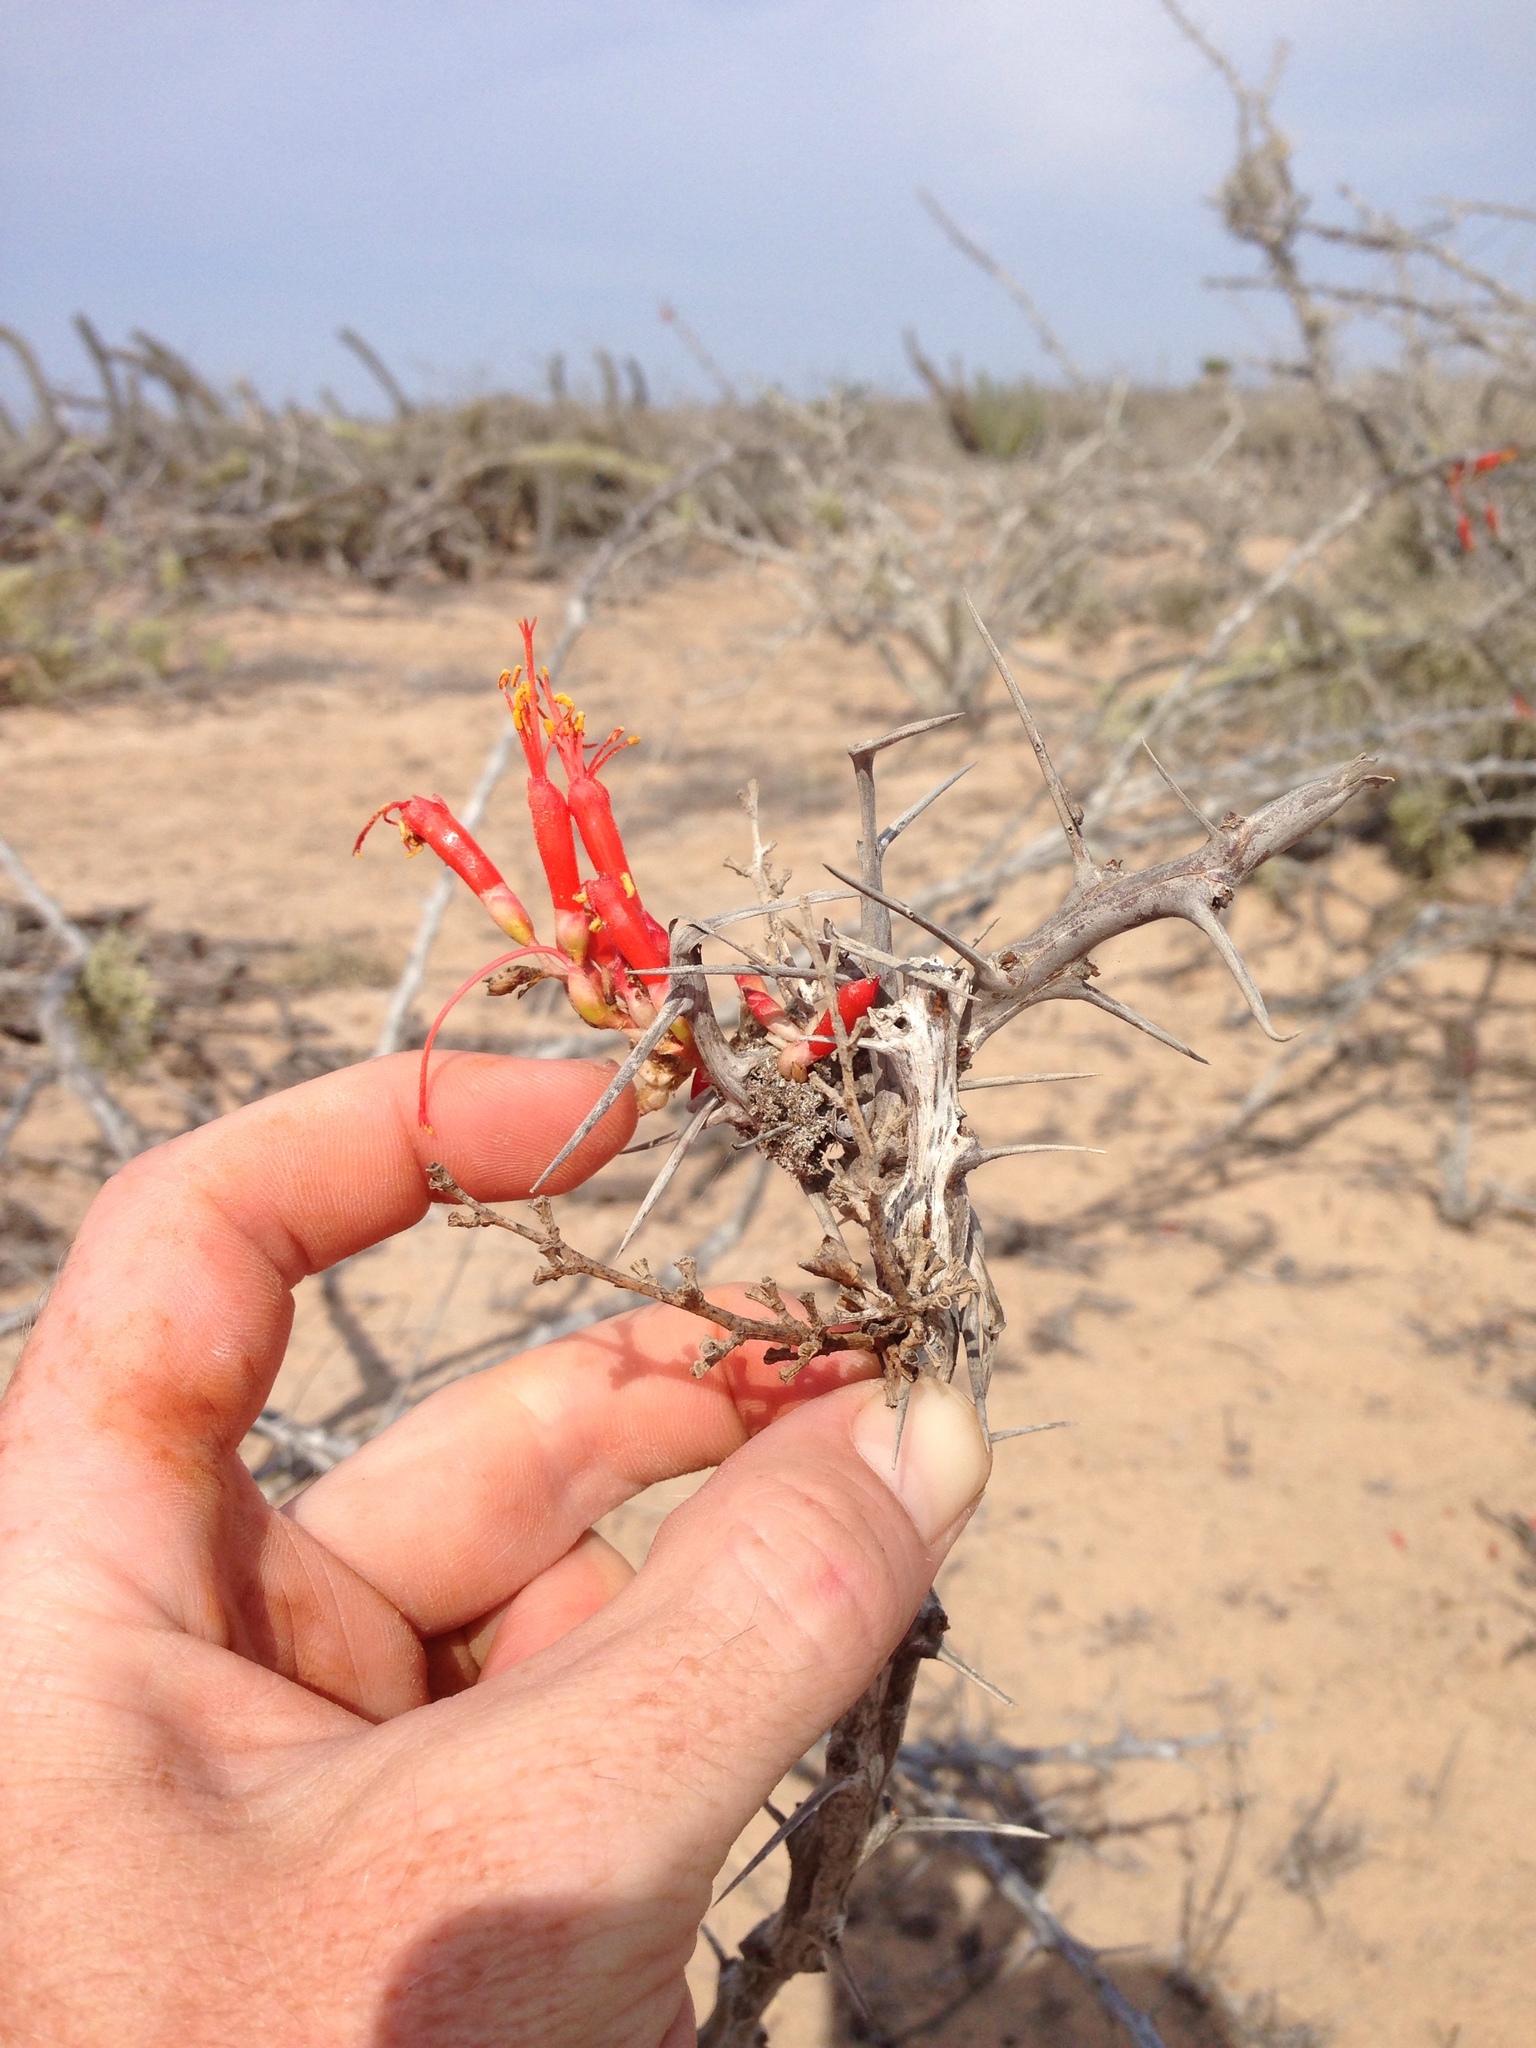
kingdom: Plantae
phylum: Tracheophyta
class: Magnoliopsida
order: Ericales
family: Fouquieriaceae
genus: Fouquieria
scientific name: Fouquieria diguetii
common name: Adam's tree
